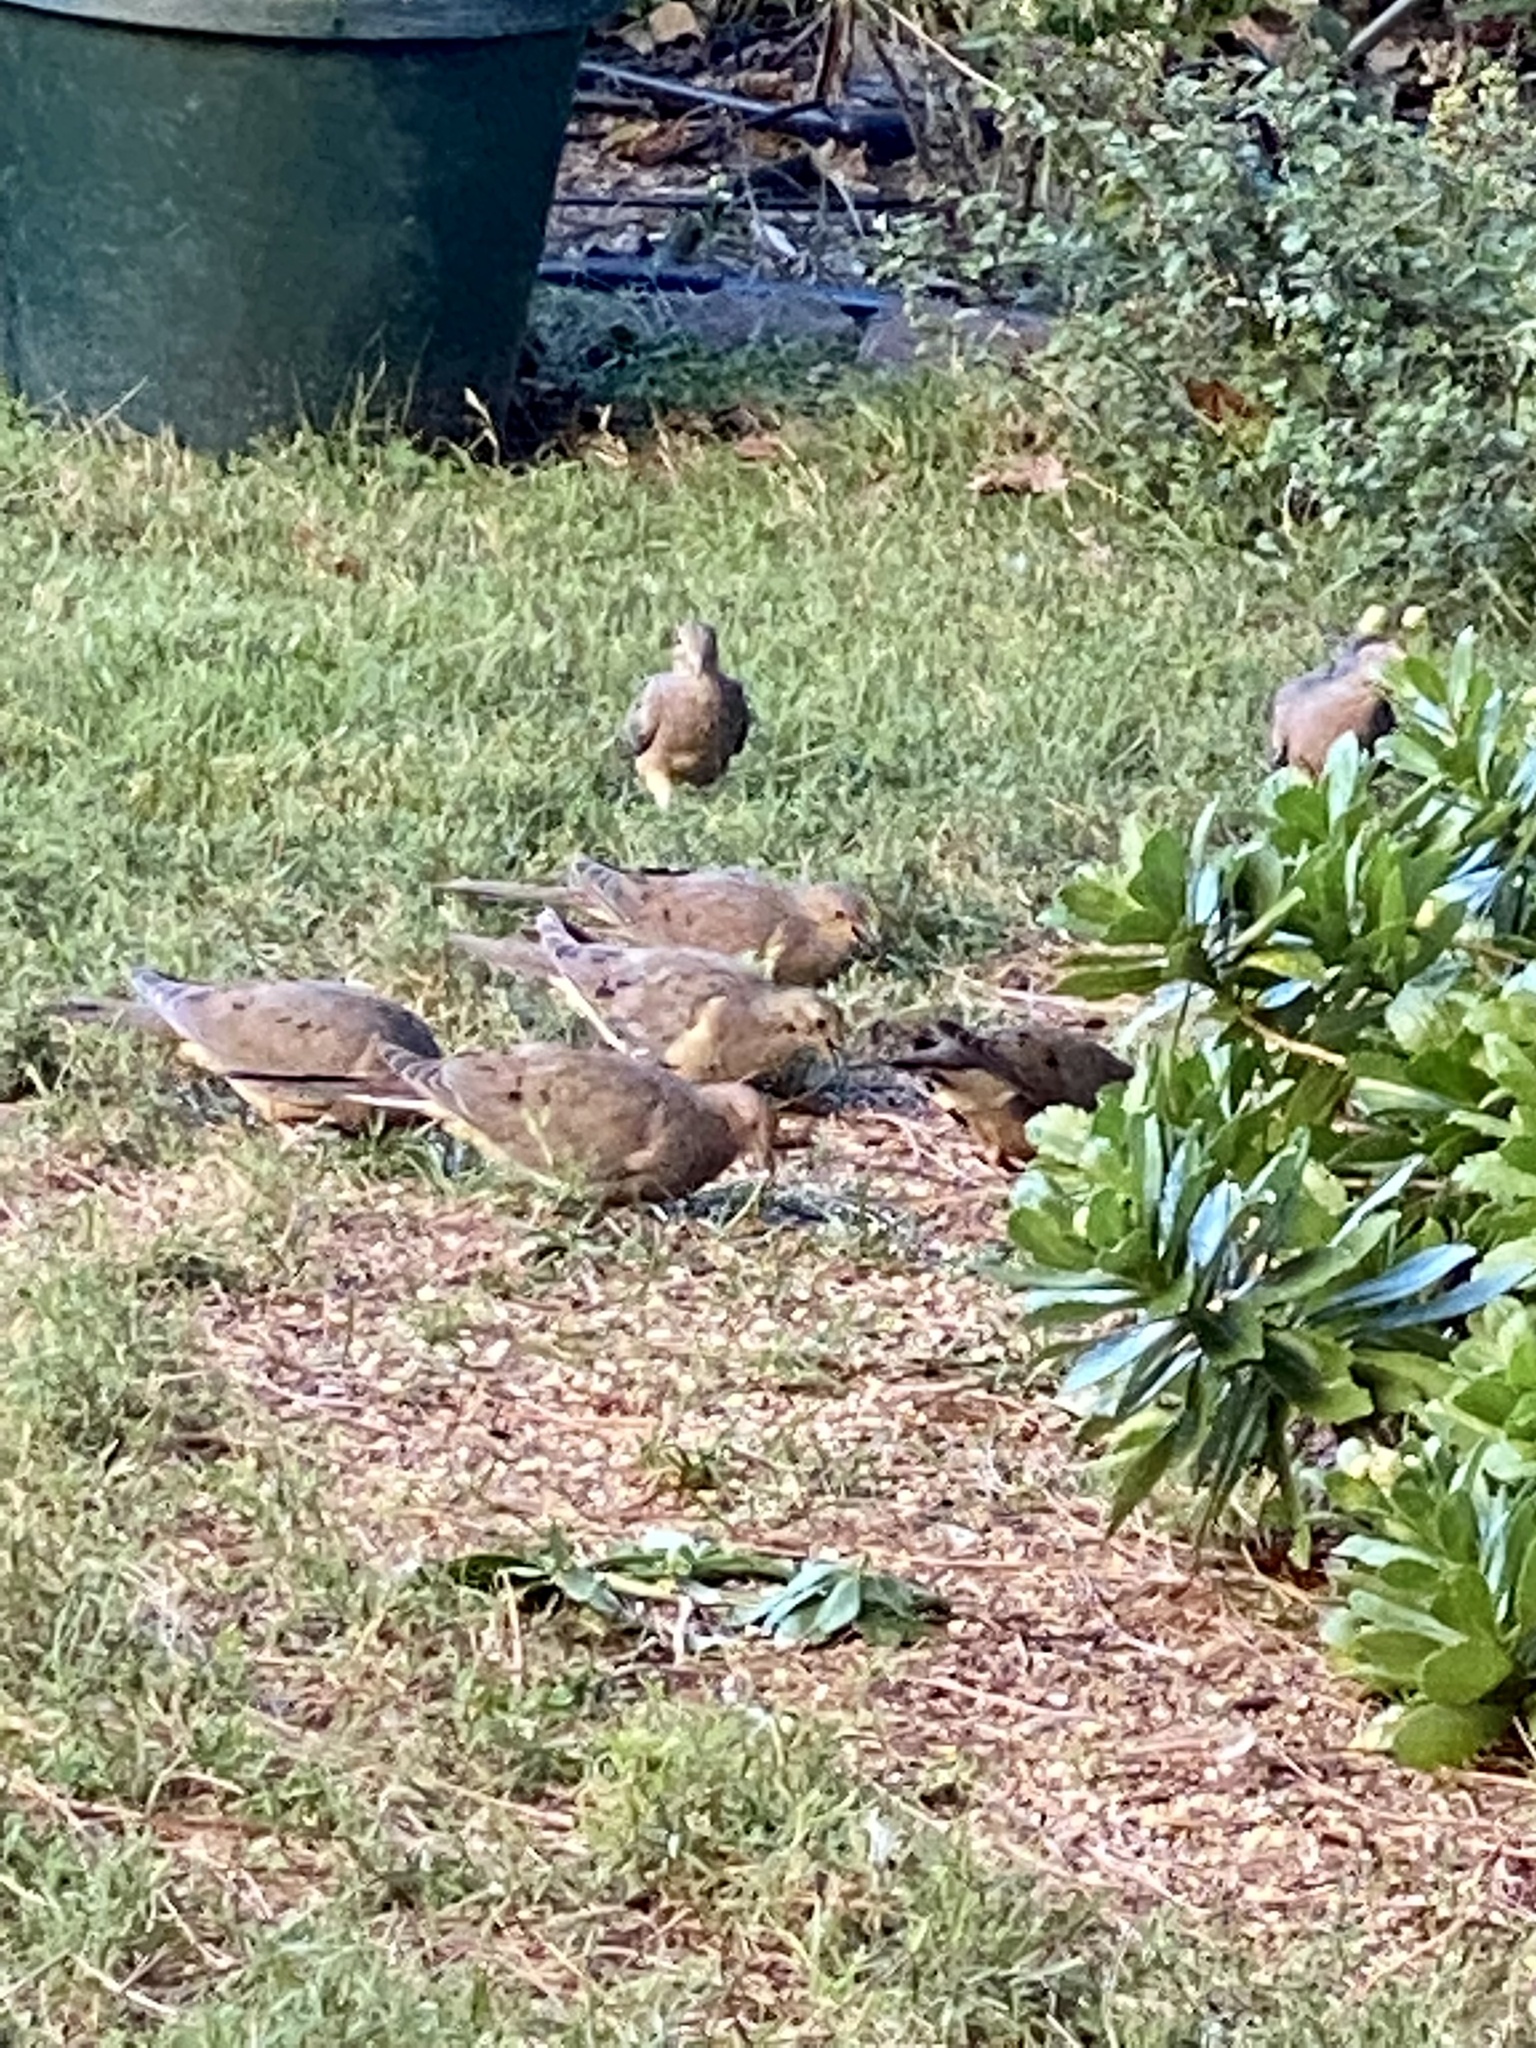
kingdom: Animalia
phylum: Chordata
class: Aves
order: Columbiformes
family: Columbidae
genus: Zenaida
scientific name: Zenaida macroura
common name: Mourning dove
